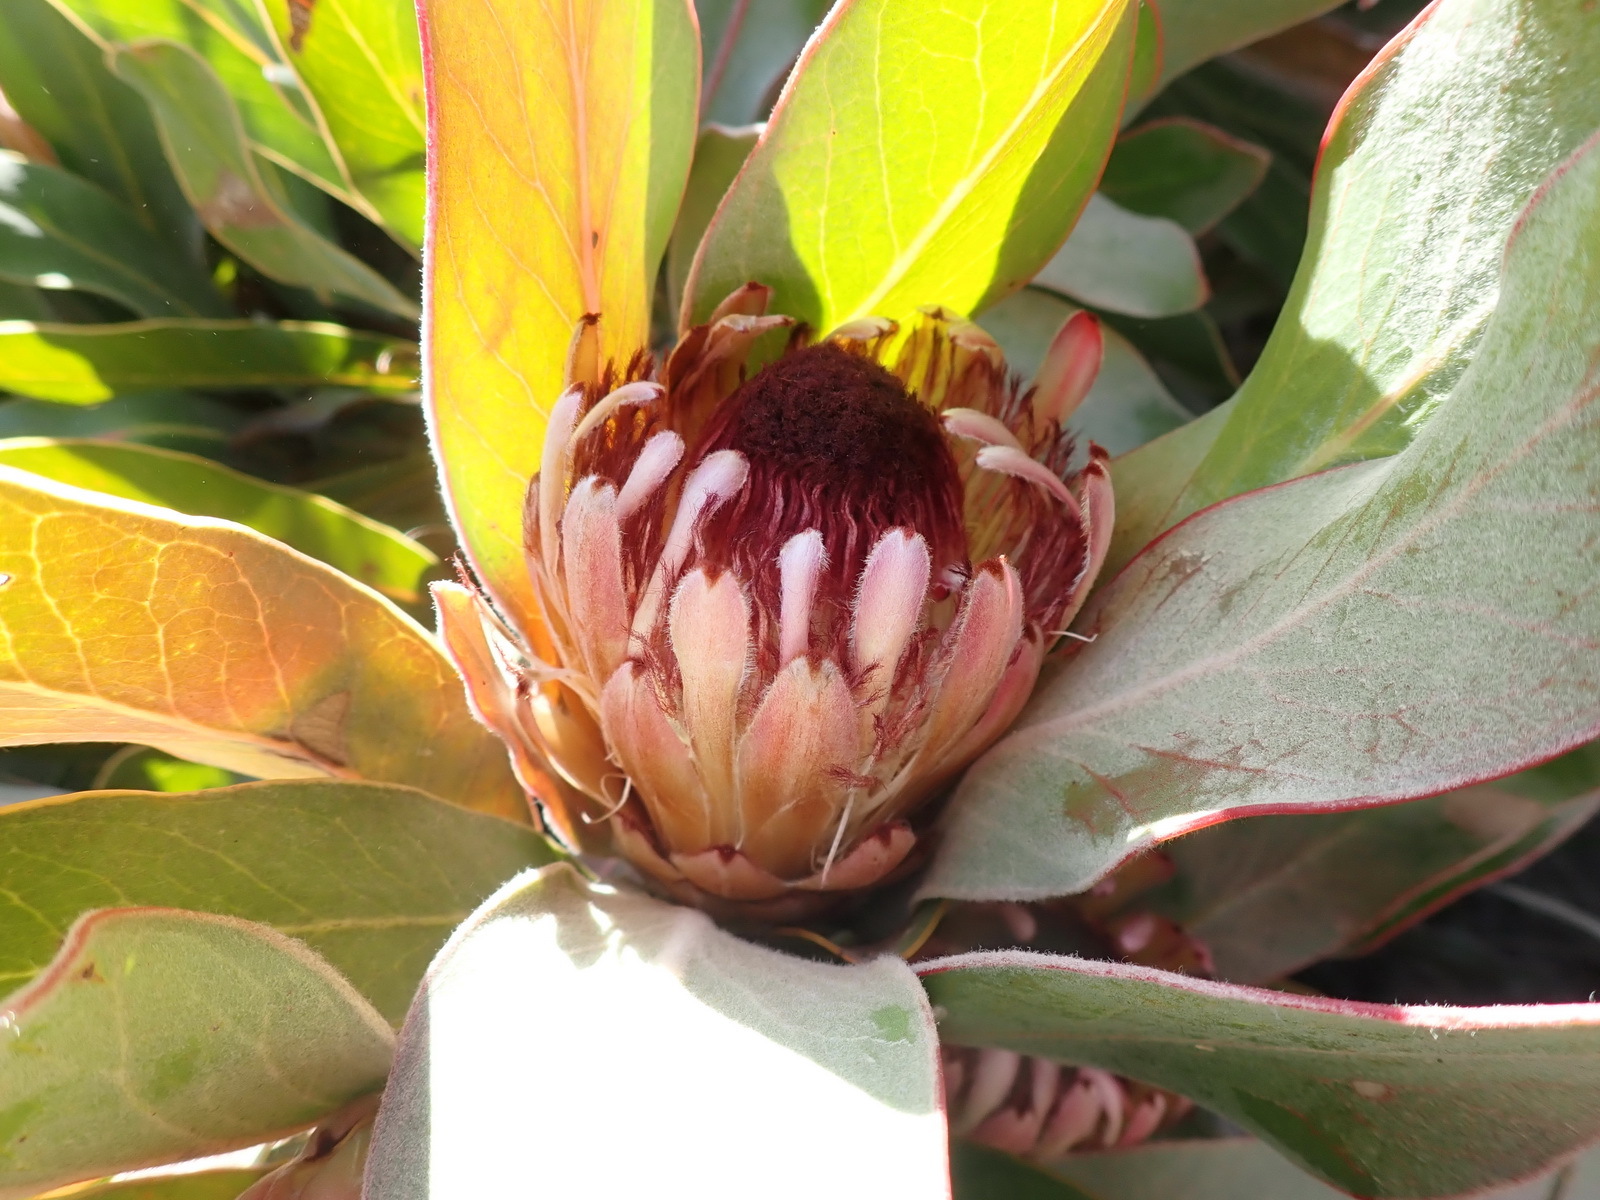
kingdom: Plantae
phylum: Tracheophyta
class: Magnoliopsida
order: Proteales
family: Proteaceae
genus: Protea
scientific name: Protea lorifolia
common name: Strap-leaved protea
